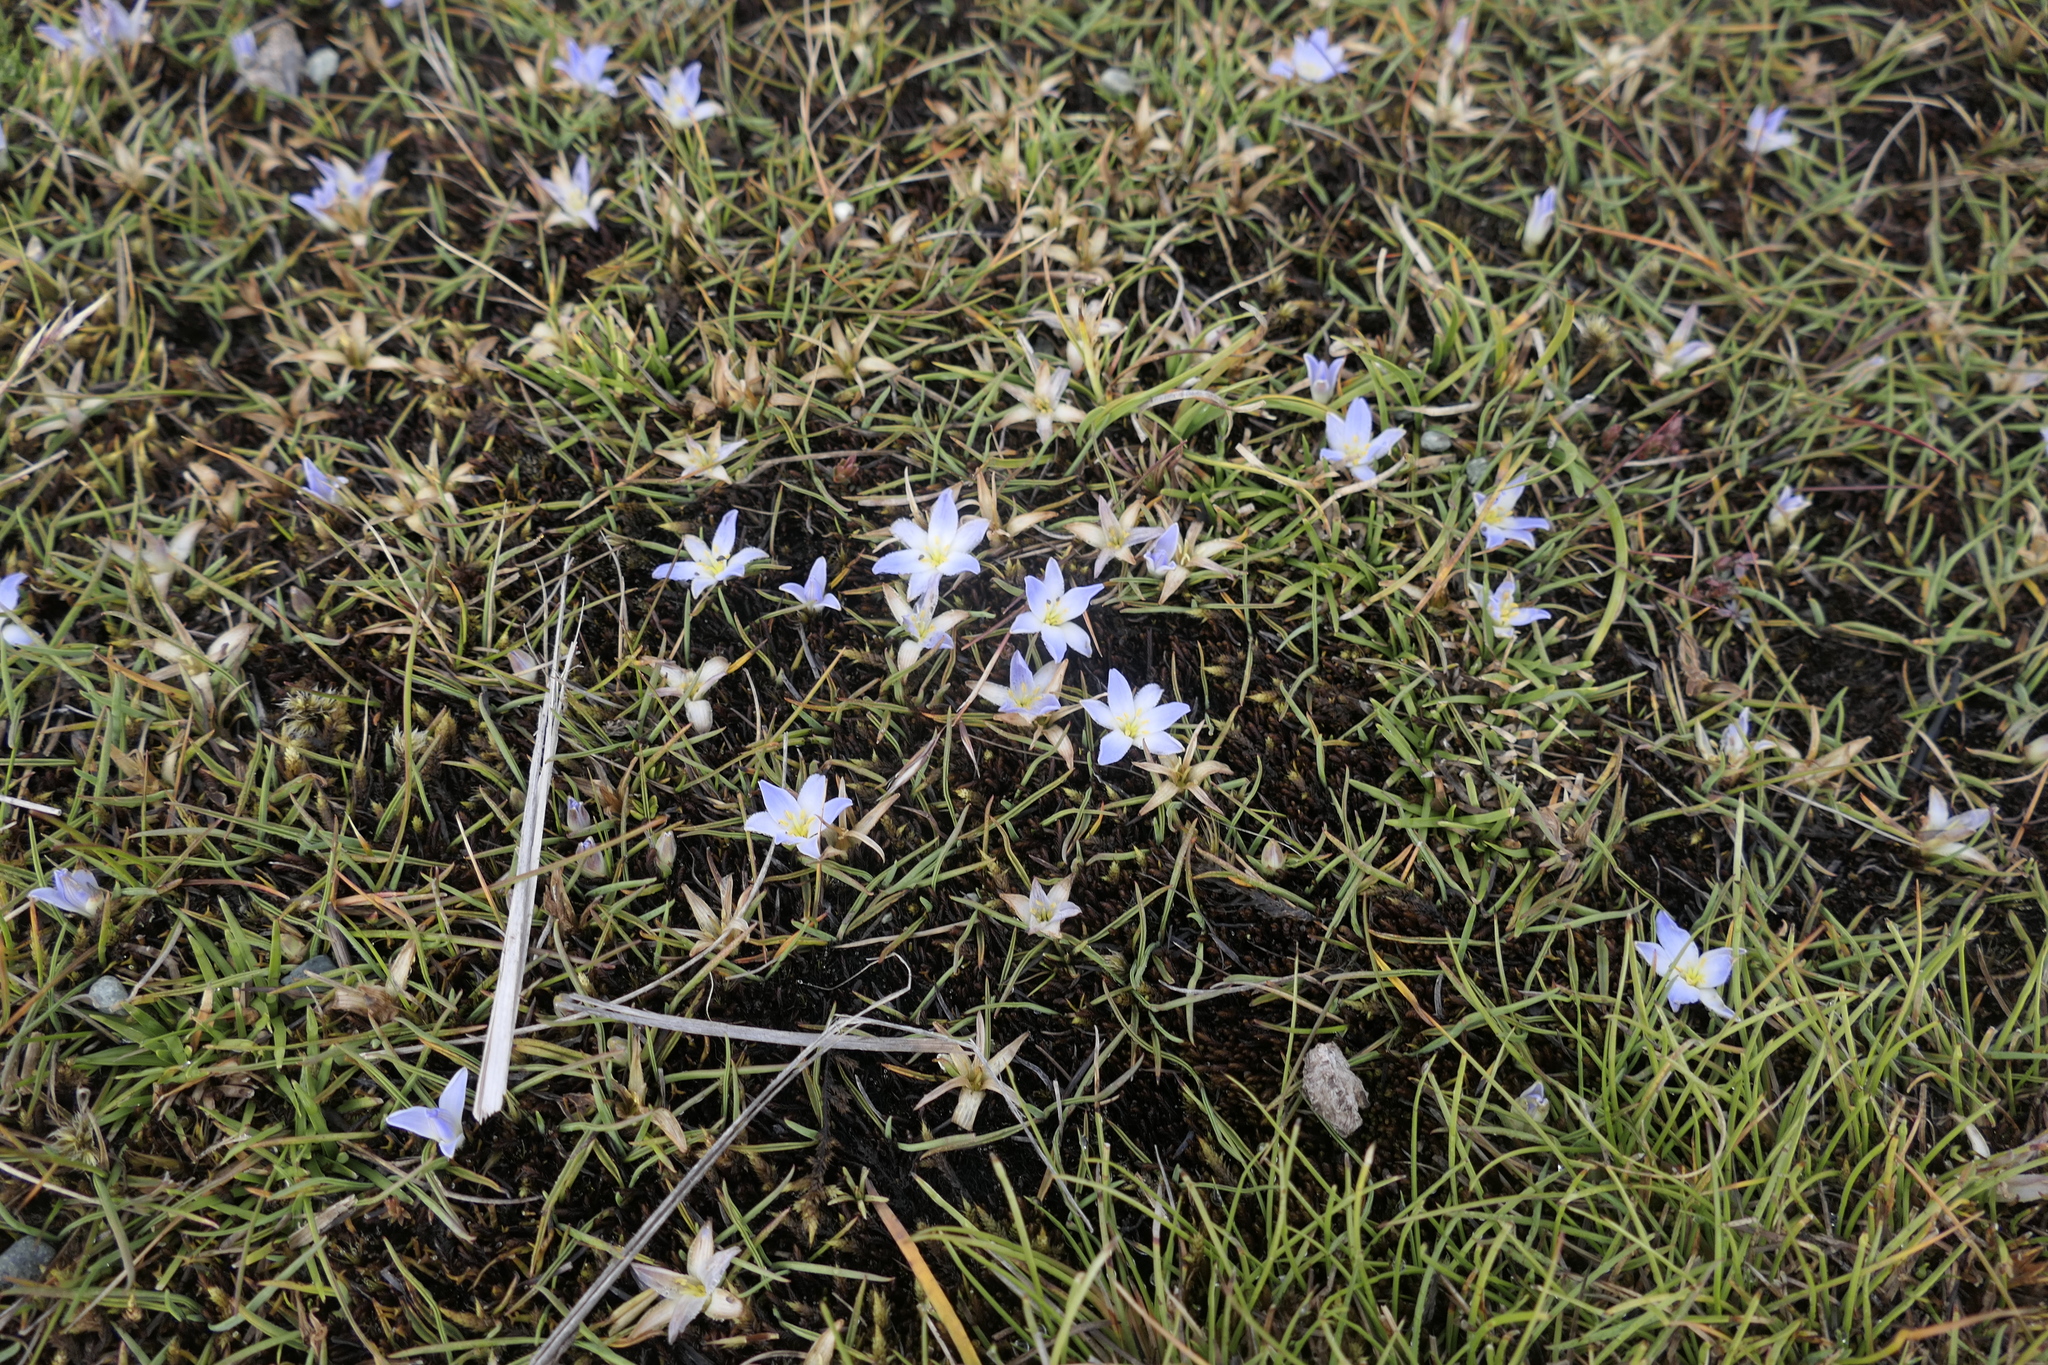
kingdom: Plantae
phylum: Tracheophyta
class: Liliopsida
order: Asparagales
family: Asphodelaceae
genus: Herpolirion
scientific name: Herpolirion novae-zelandiae
